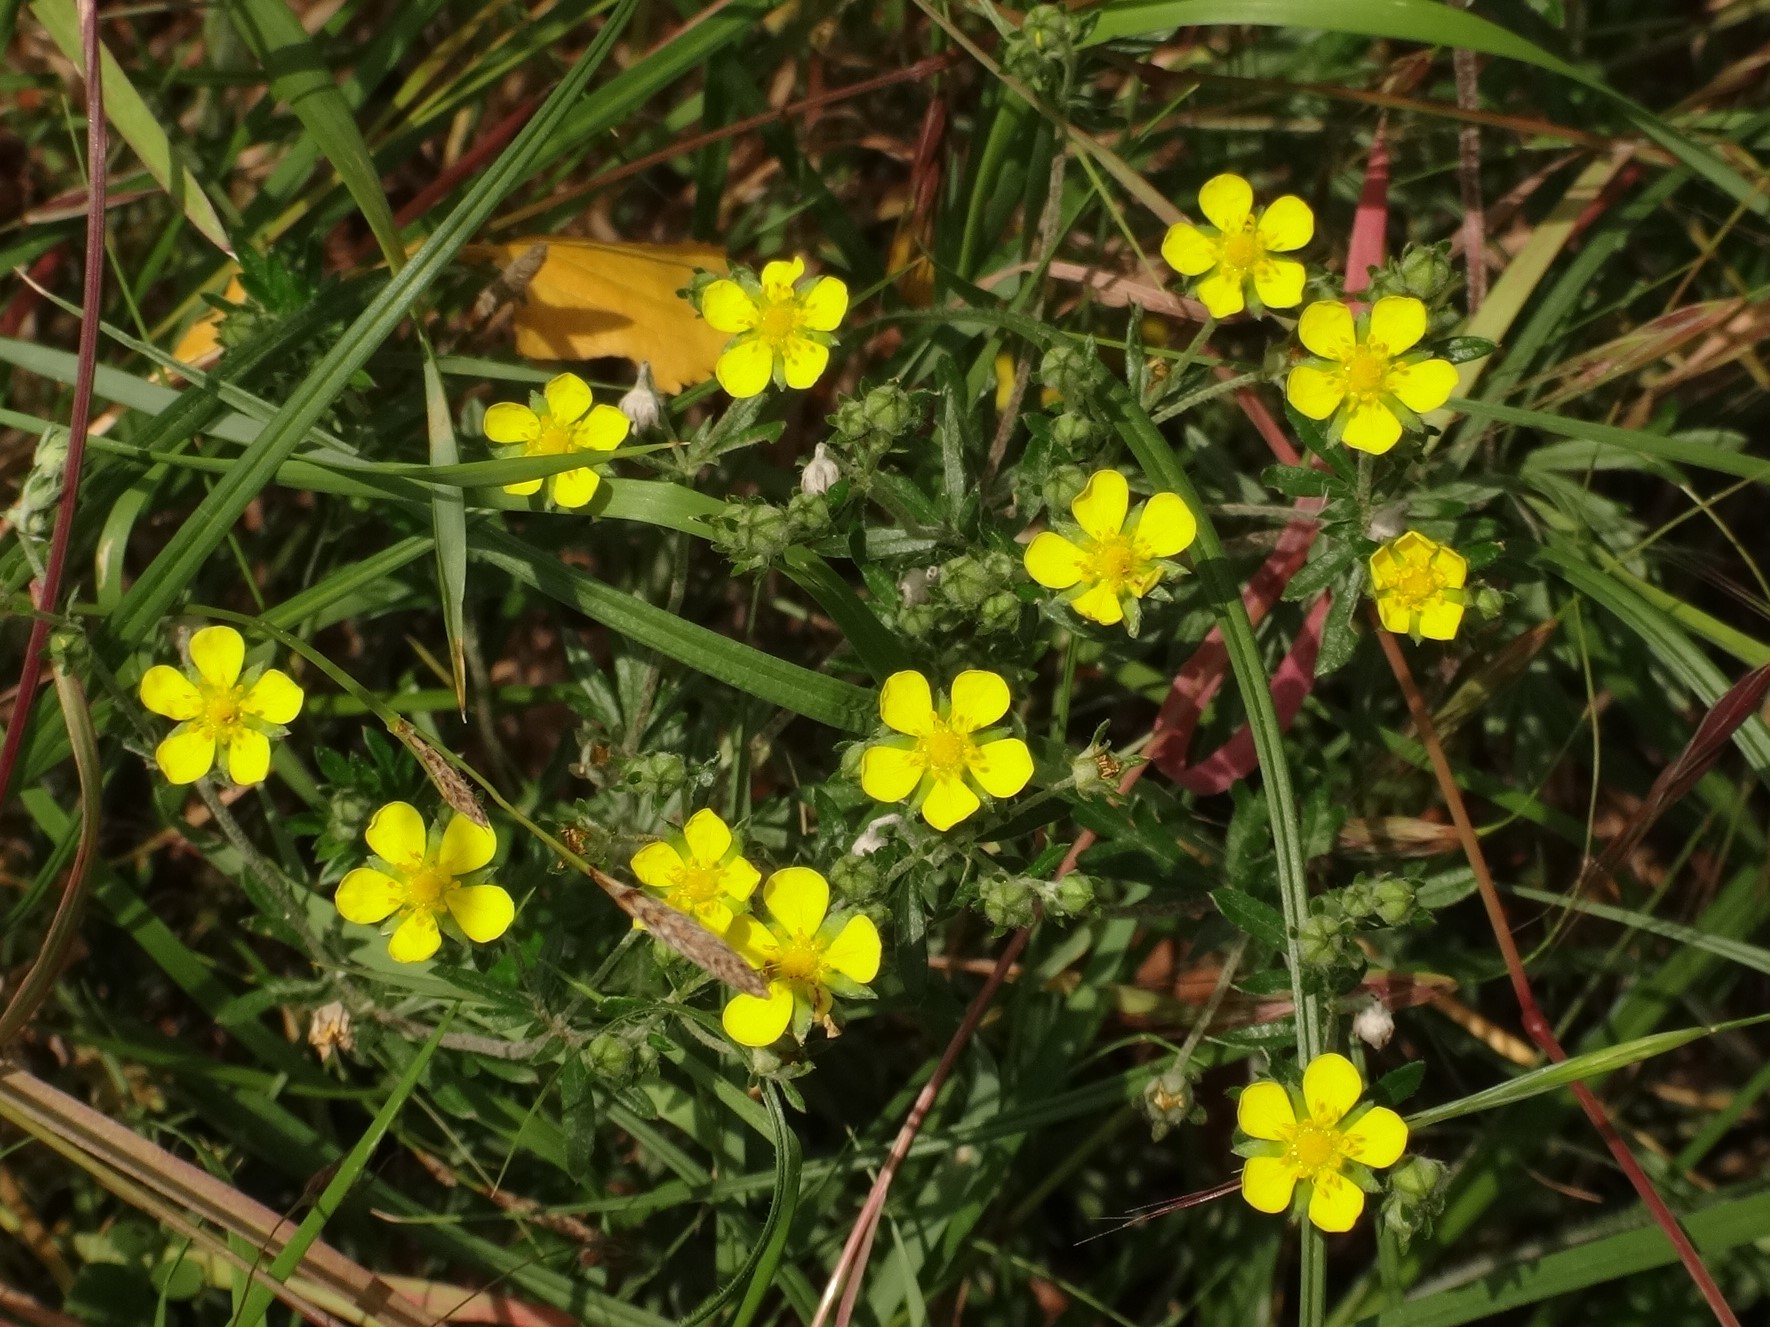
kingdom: Plantae
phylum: Tracheophyta
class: Magnoliopsida
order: Rosales
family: Rosaceae
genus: Potentilla
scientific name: Potentilla argentea
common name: Hoary cinquefoil
